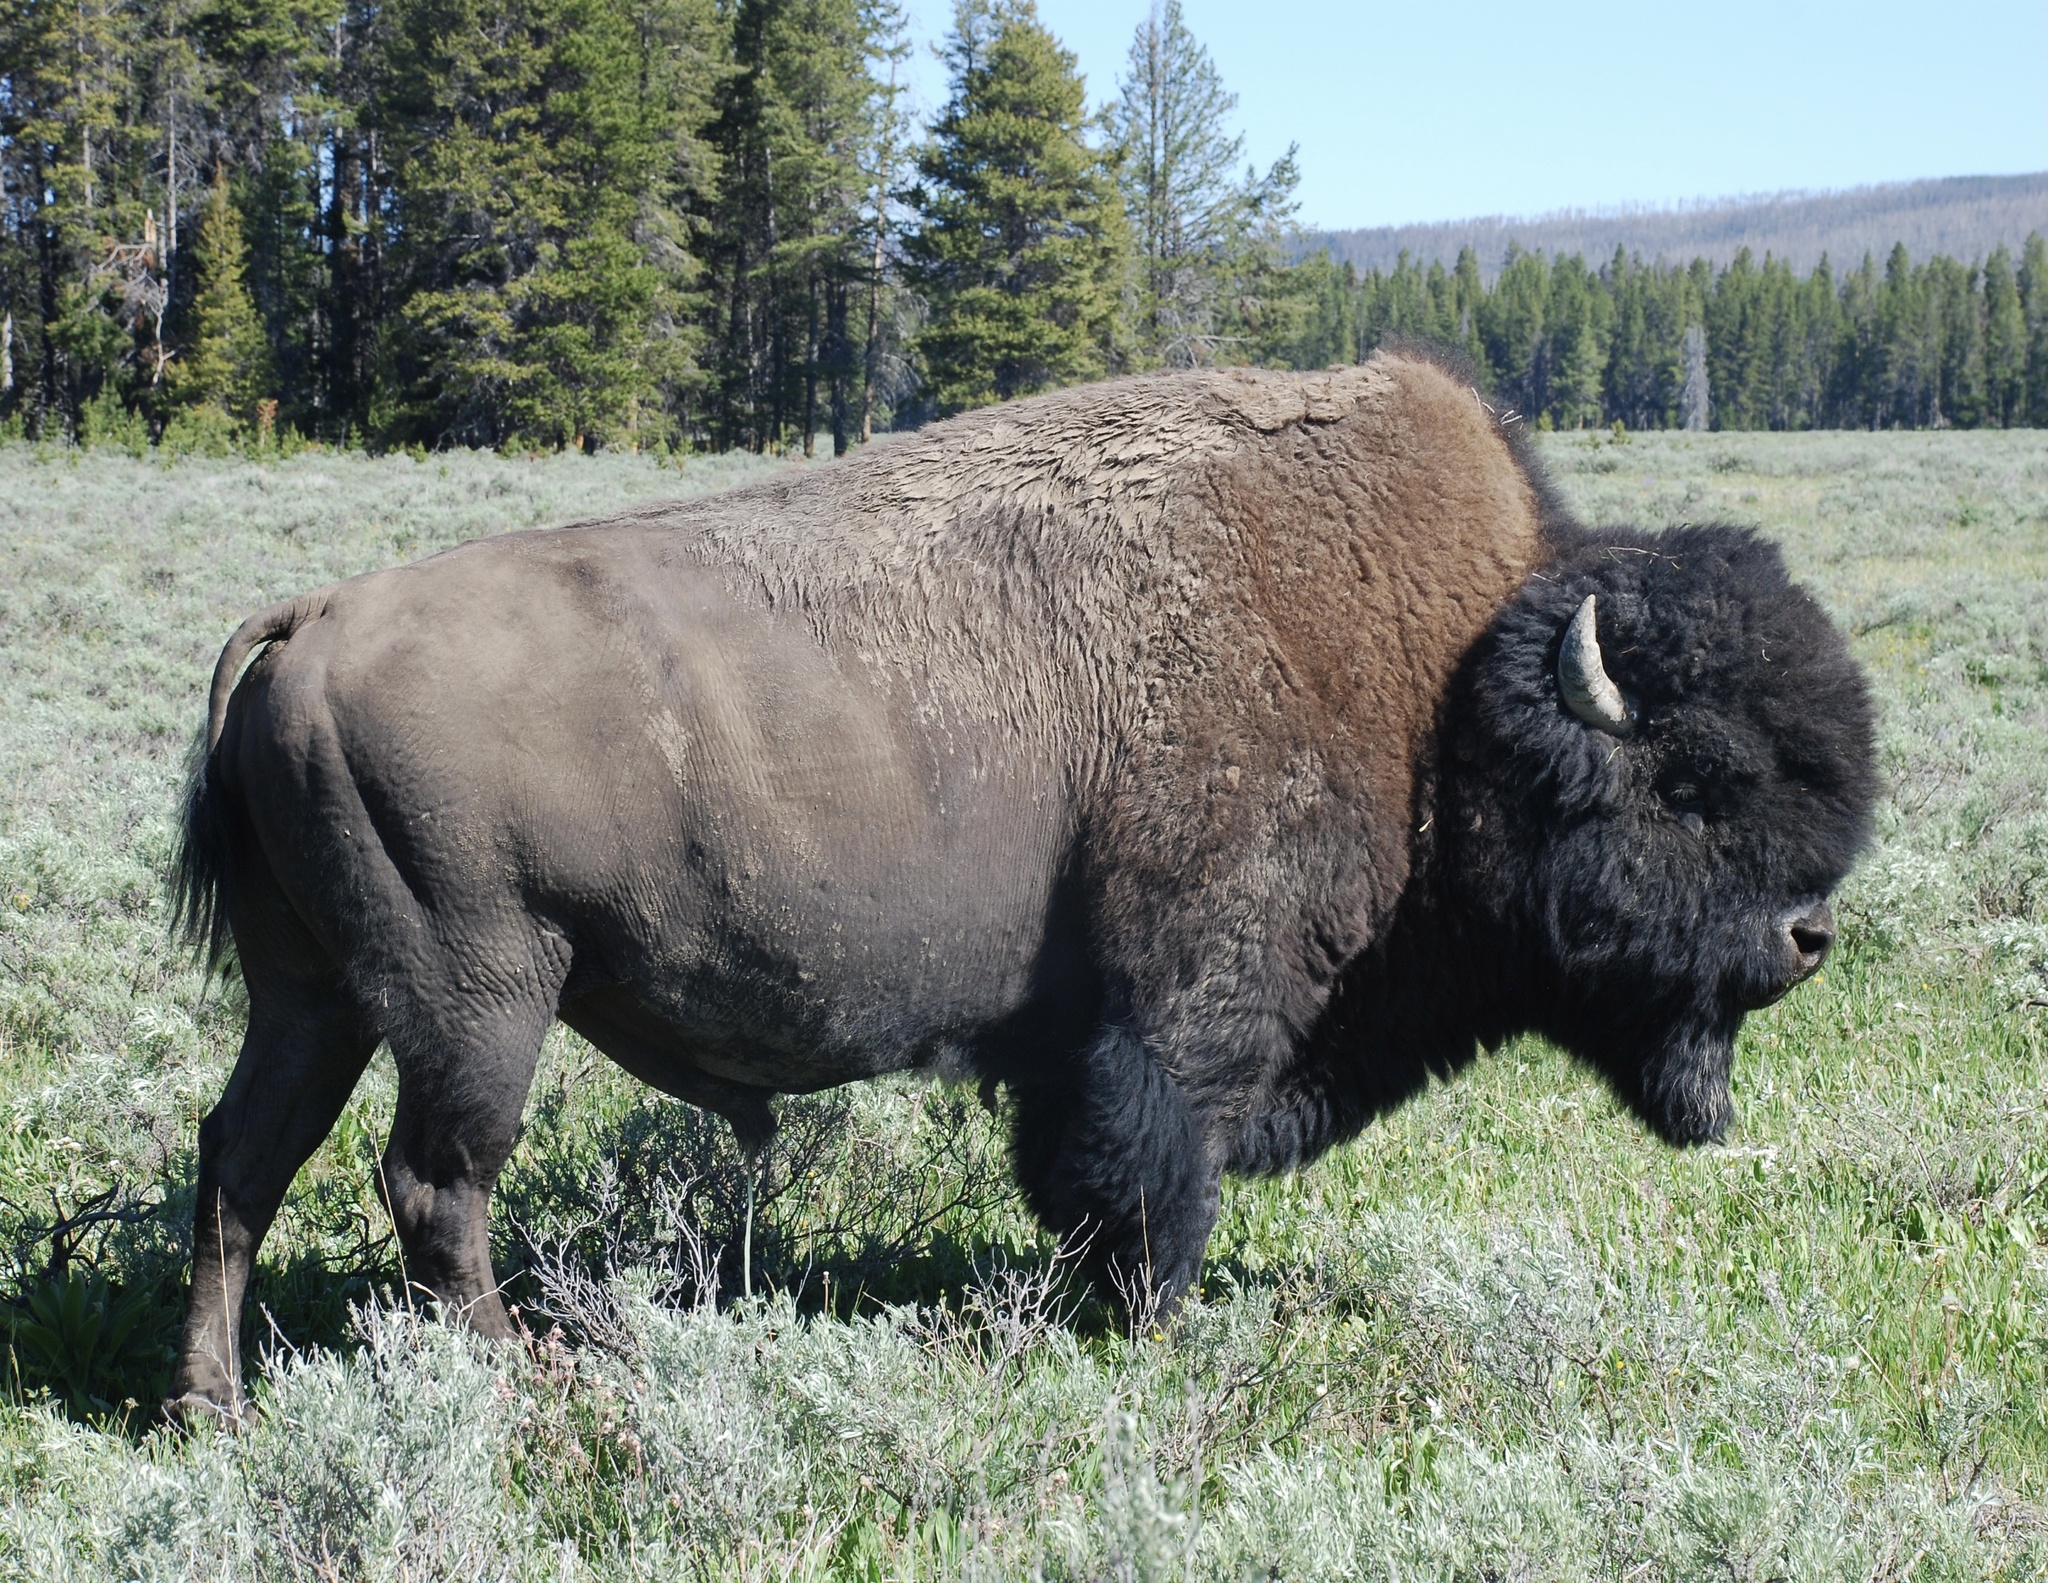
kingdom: Animalia
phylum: Chordata
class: Mammalia
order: Artiodactyla
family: Bovidae
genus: Bison
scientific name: Bison bison
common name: American bison
